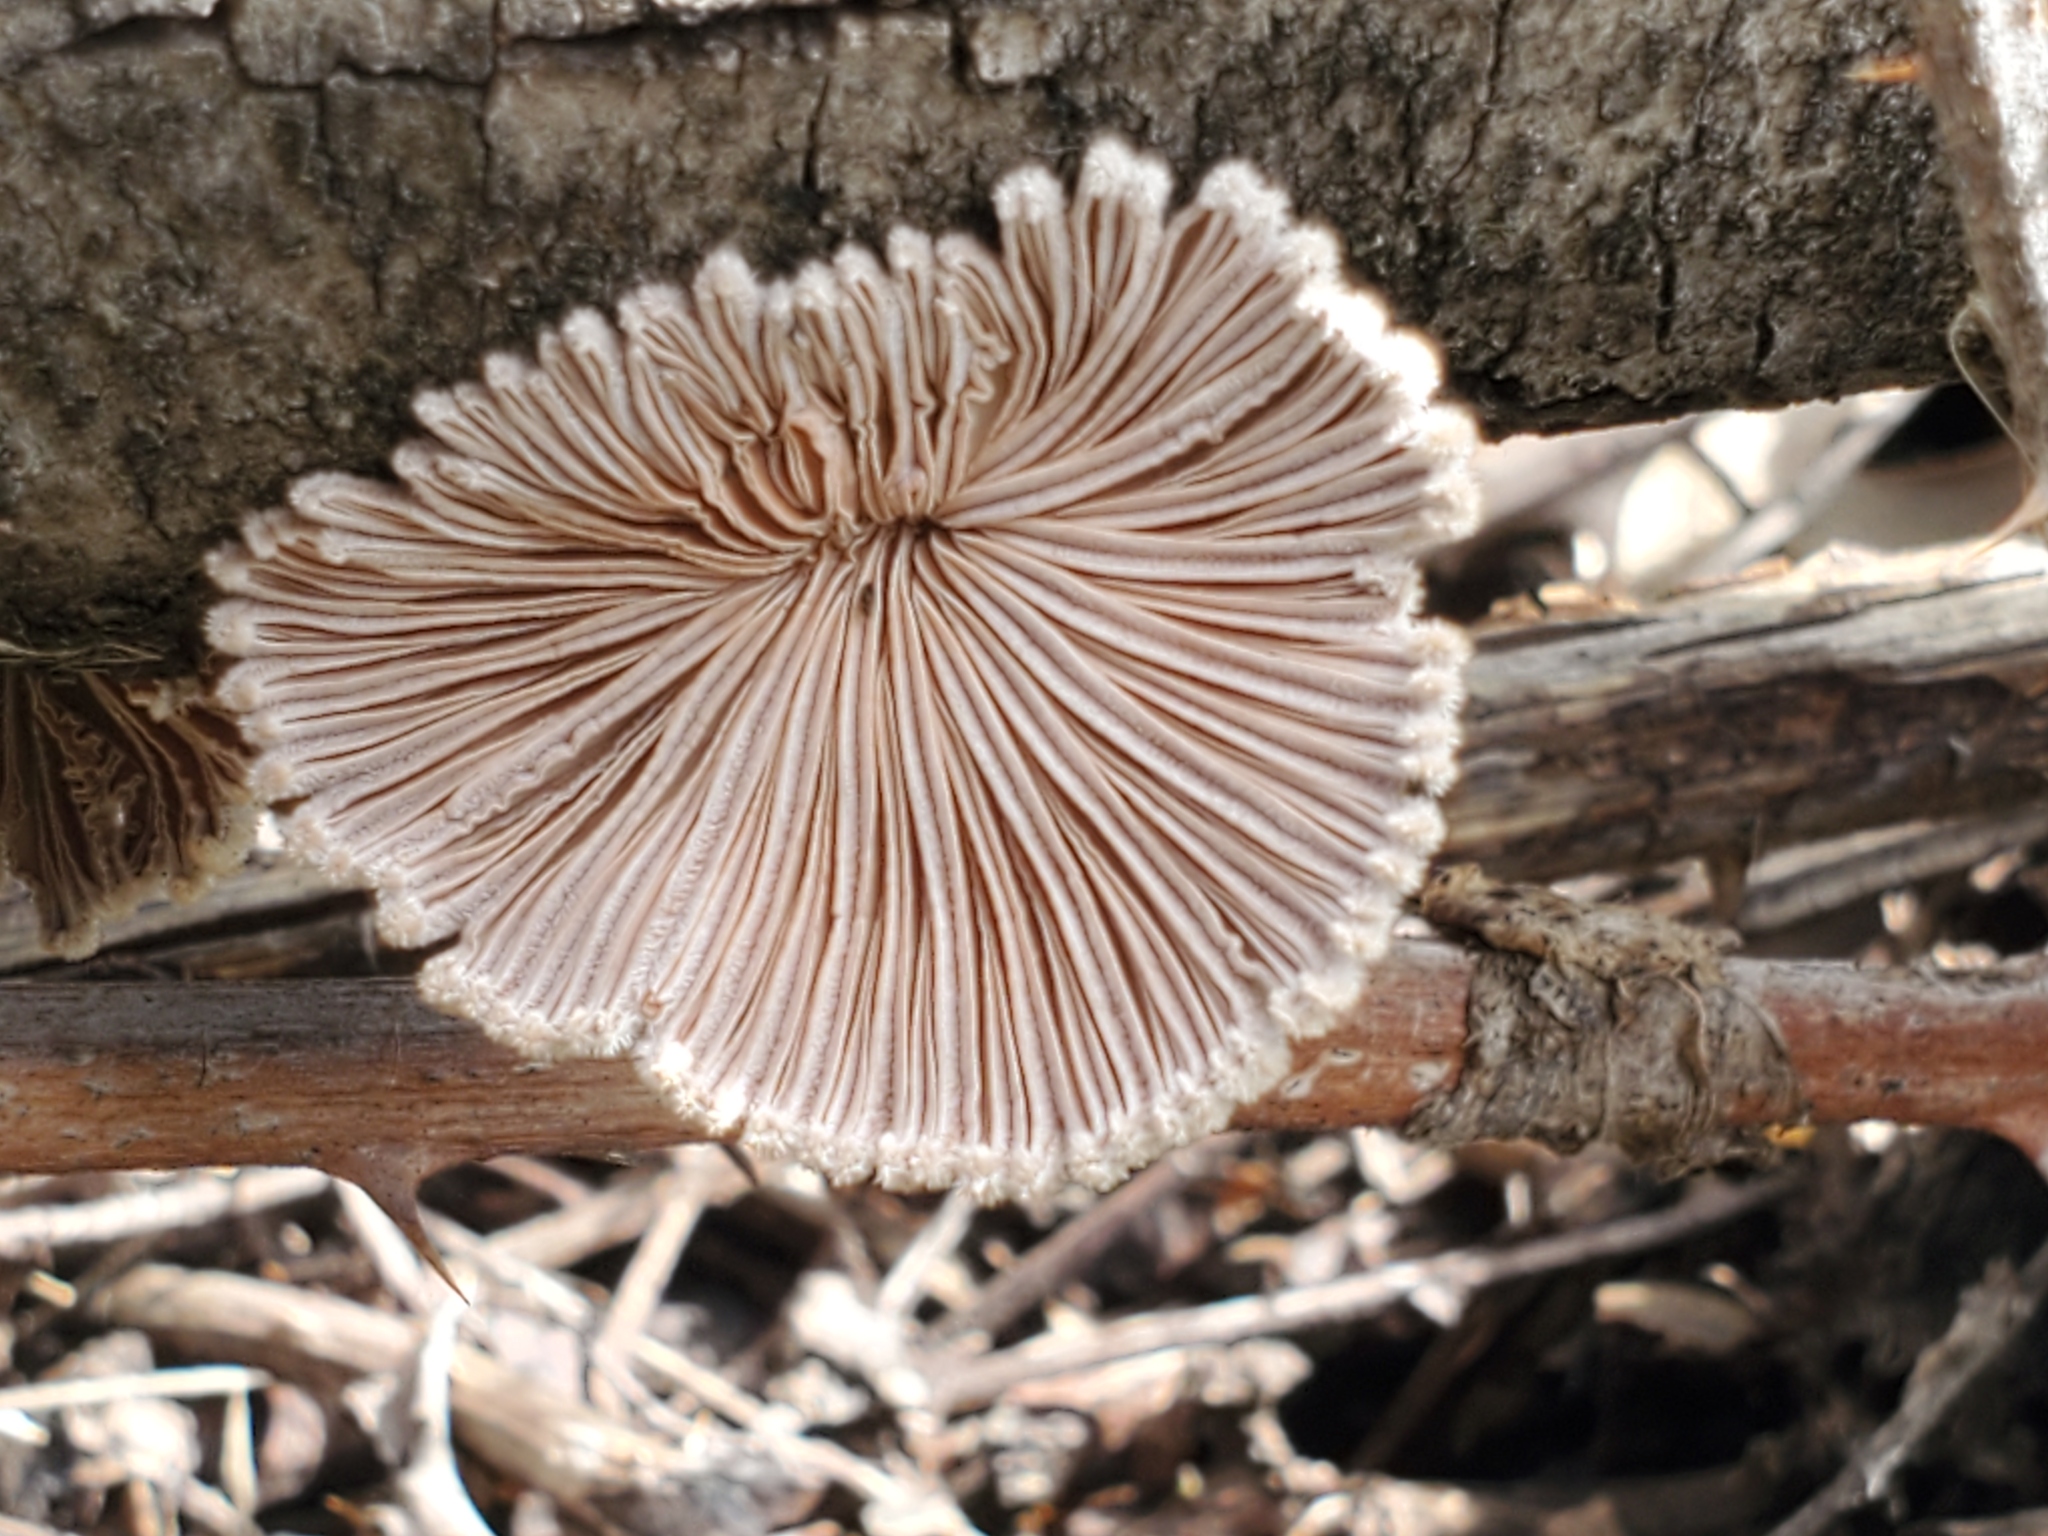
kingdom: Fungi
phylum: Basidiomycota
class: Agaricomycetes
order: Agaricales
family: Schizophyllaceae
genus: Schizophyllum
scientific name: Schizophyllum commune
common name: Common porecrust
